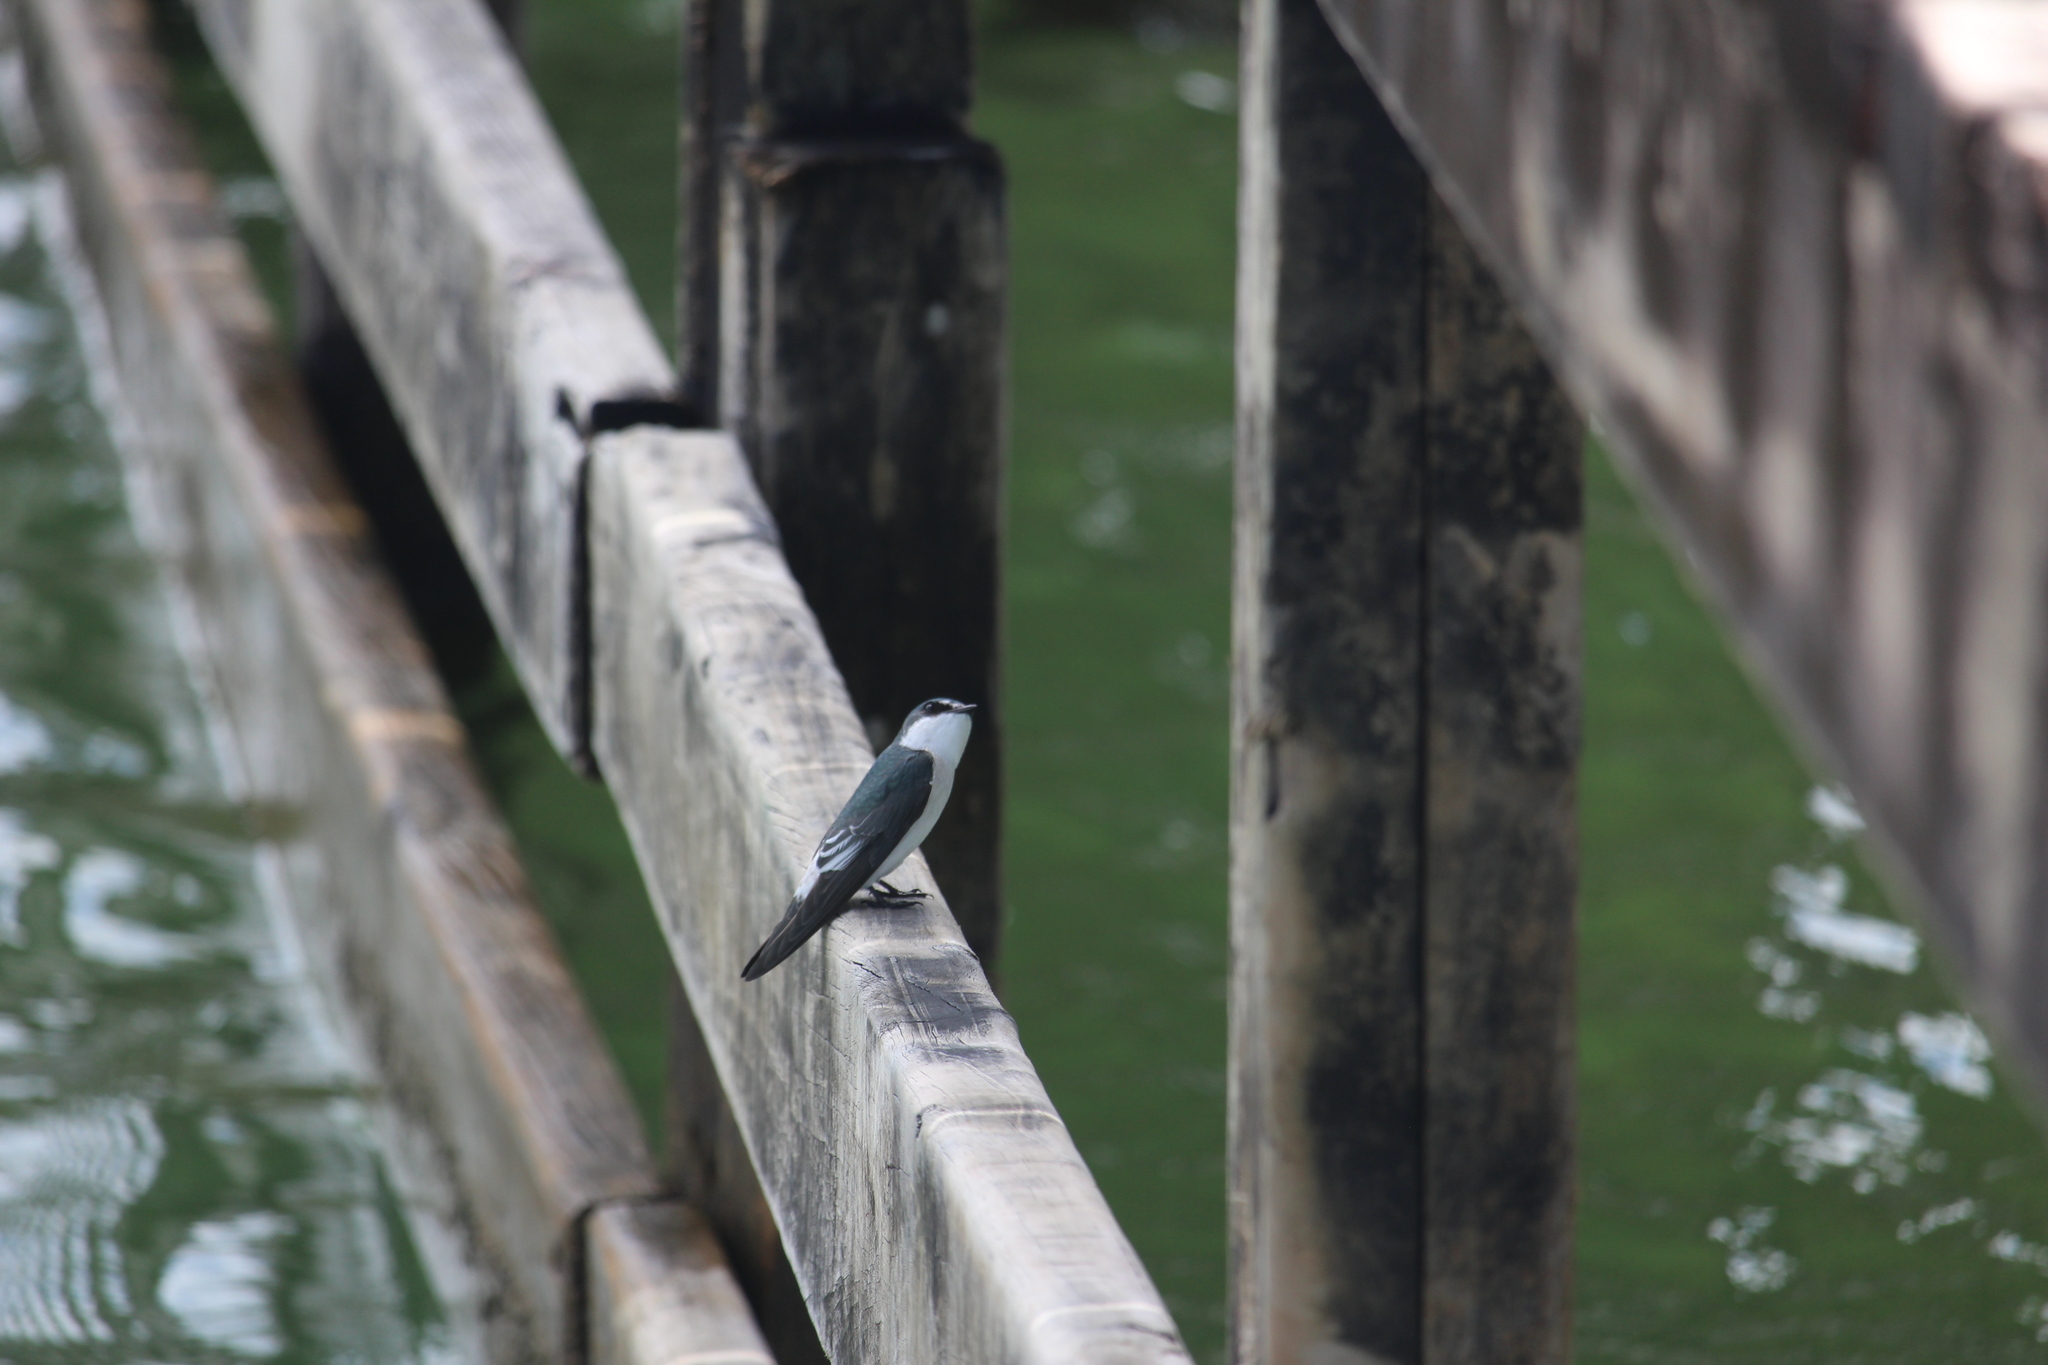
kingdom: Animalia
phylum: Chordata
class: Aves
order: Passeriformes
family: Hirundinidae
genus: Tachycineta
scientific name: Tachycineta albilinea
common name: Mangrove swallow
